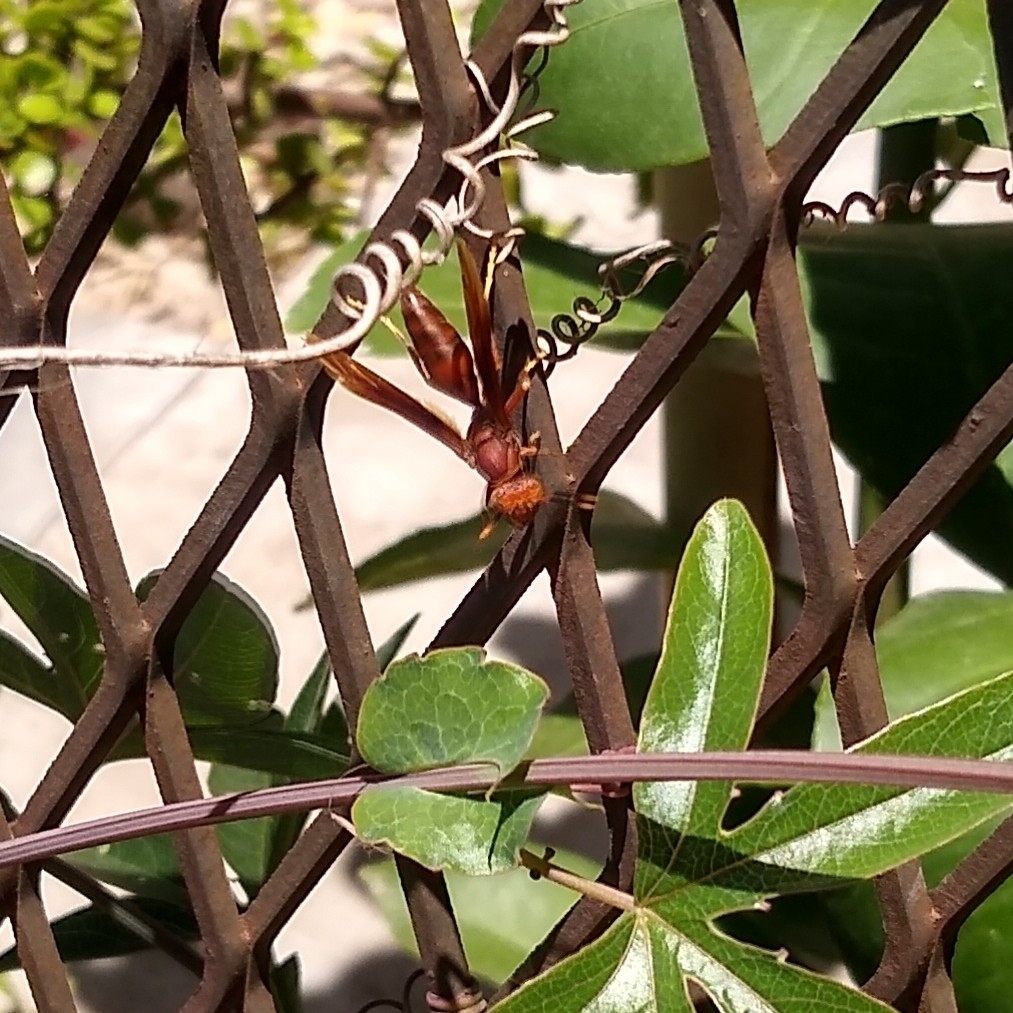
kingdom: Animalia
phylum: Arthropoda
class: Insecta
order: Hymenoptera
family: Eumenidae
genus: Polistes
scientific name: Polistes canadensis
